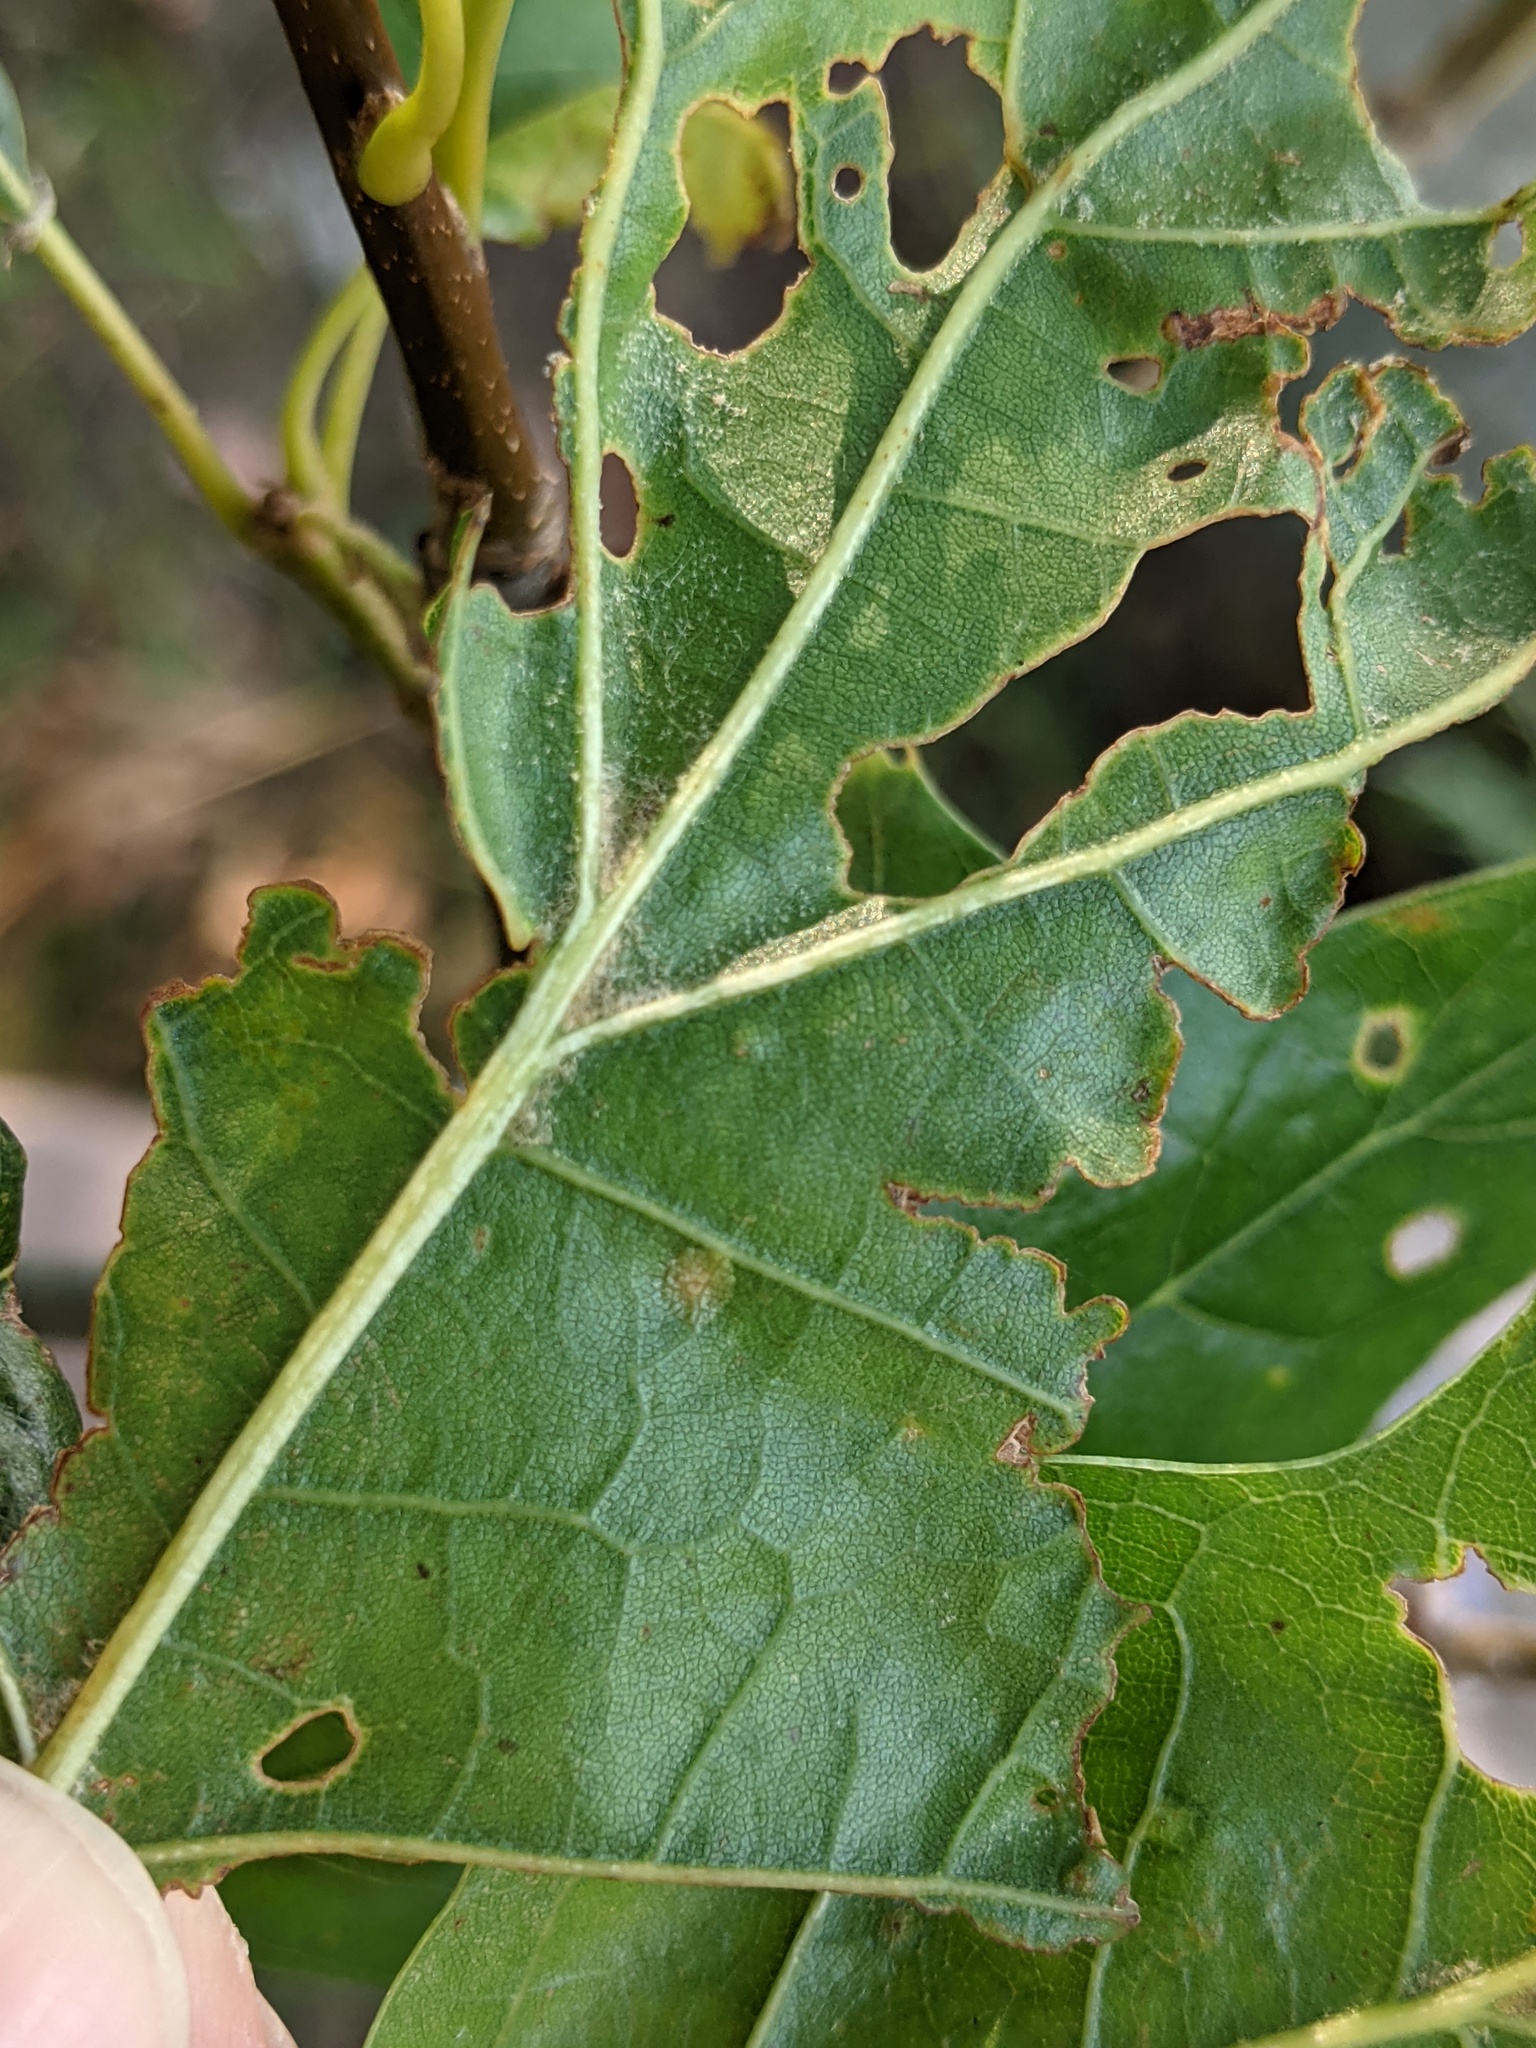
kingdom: Animalia
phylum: Arthropoda
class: Insecta
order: Diptera
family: Cecidomyiidae
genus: Polystepha
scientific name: Polystepha pilulae
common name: Oak leaf gall midge
